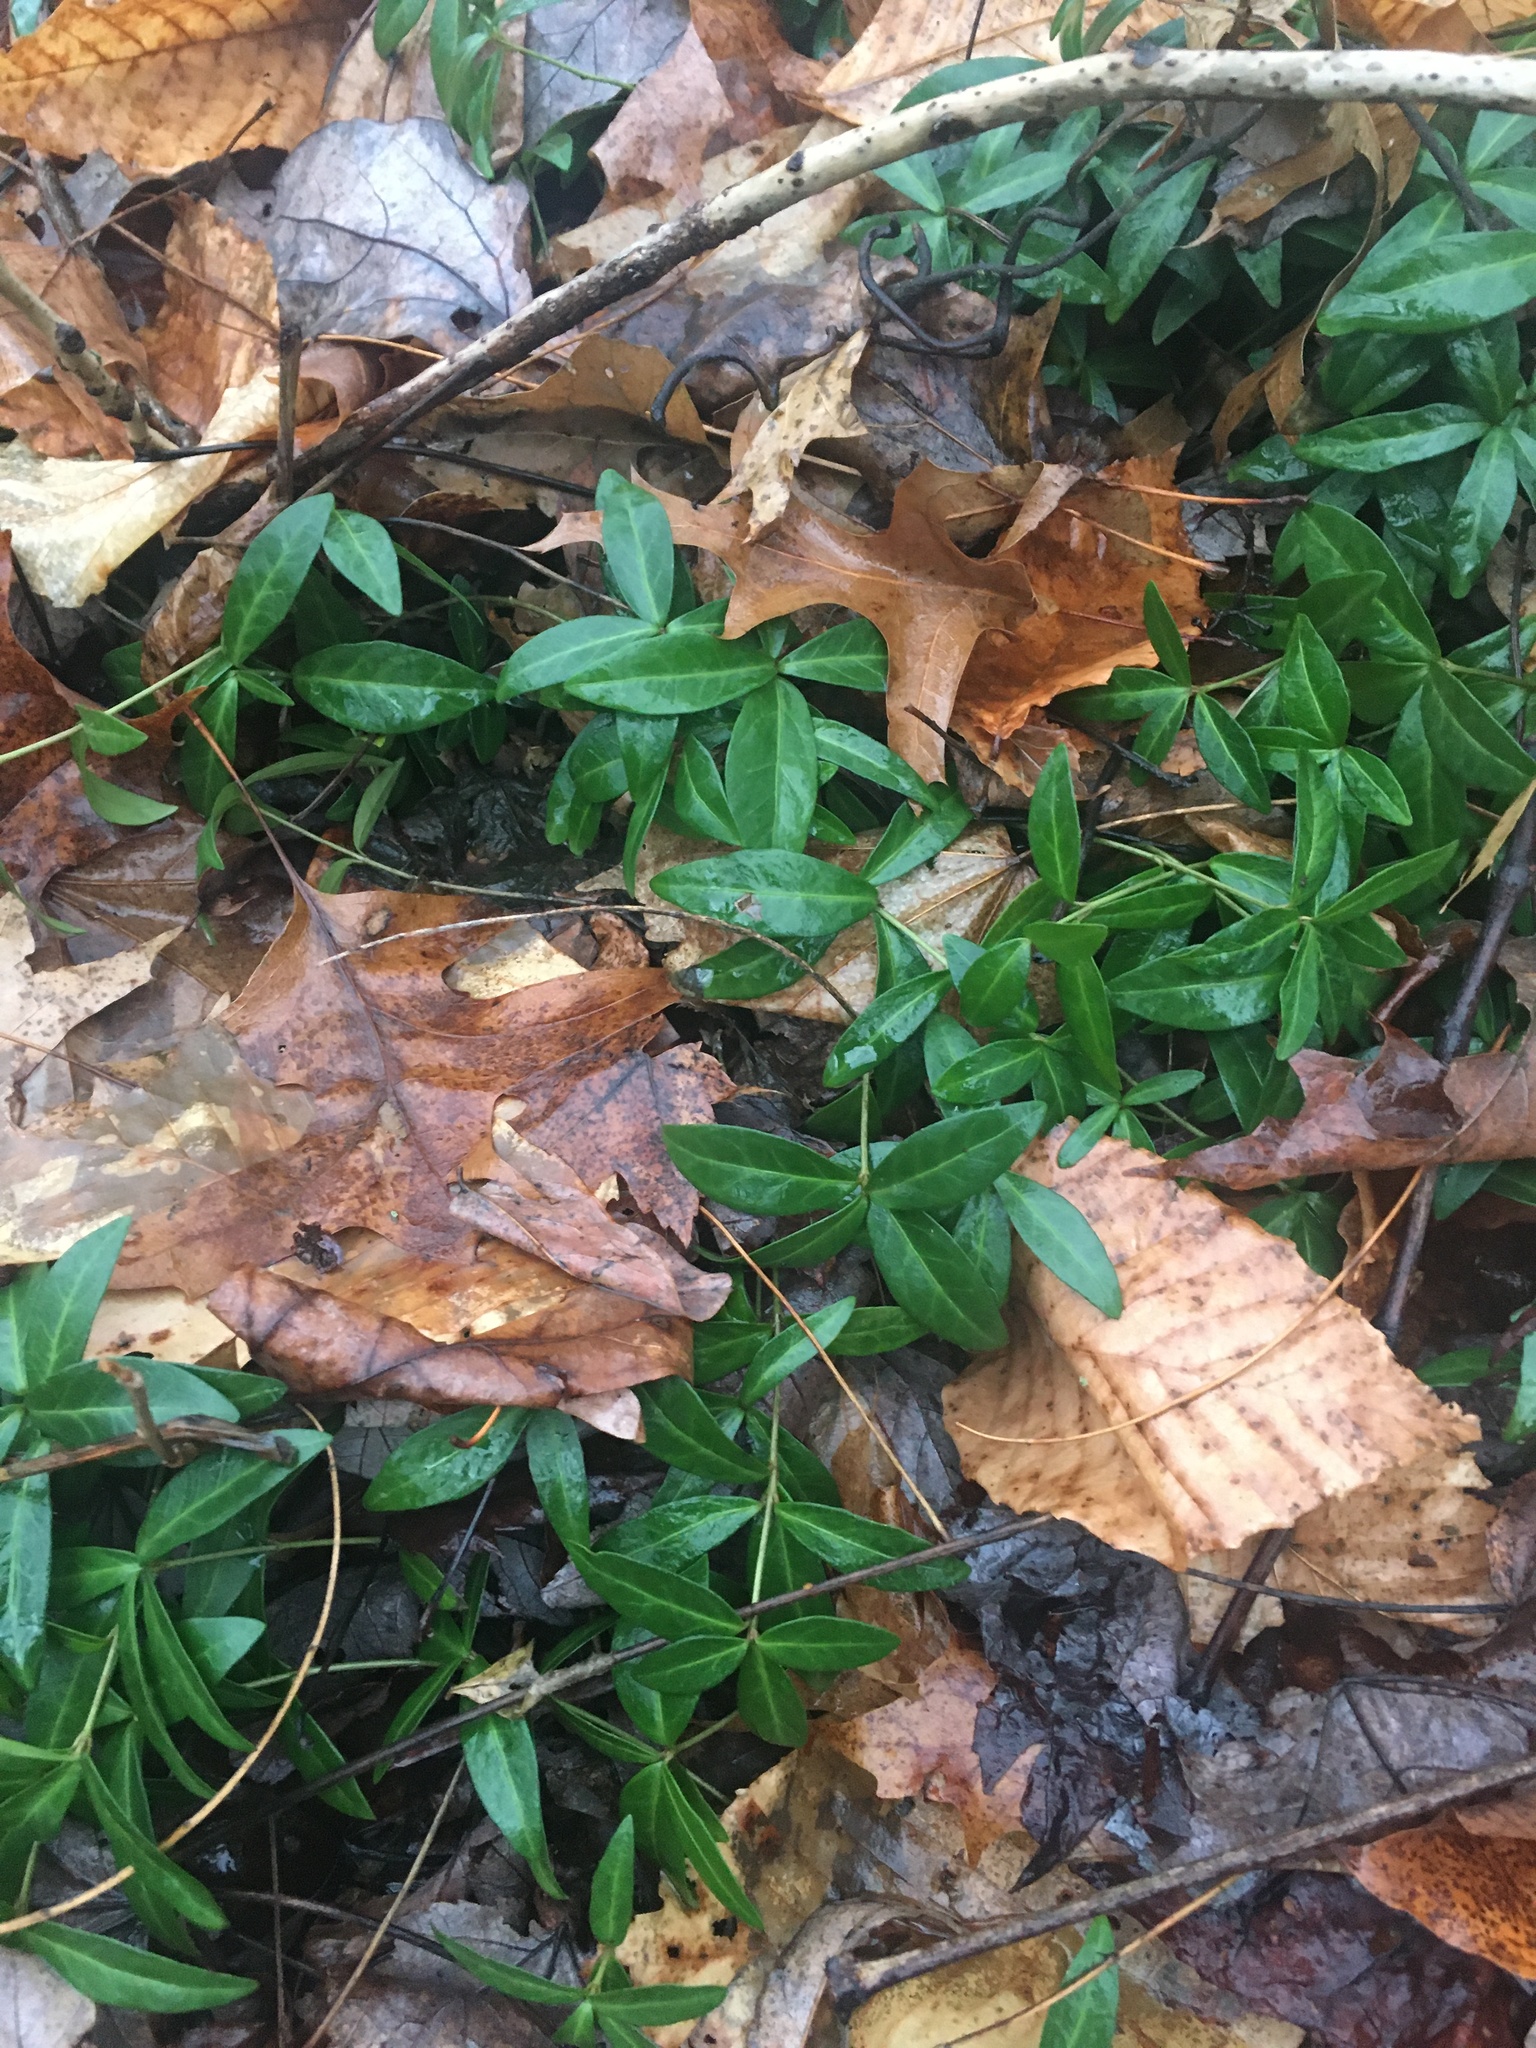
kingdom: Plantae
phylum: Tracheophyta
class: Magnoliopsida
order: Gentianales
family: Apocynaceae
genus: Vinca
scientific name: Vinca minor
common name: Lesser periwinkle
